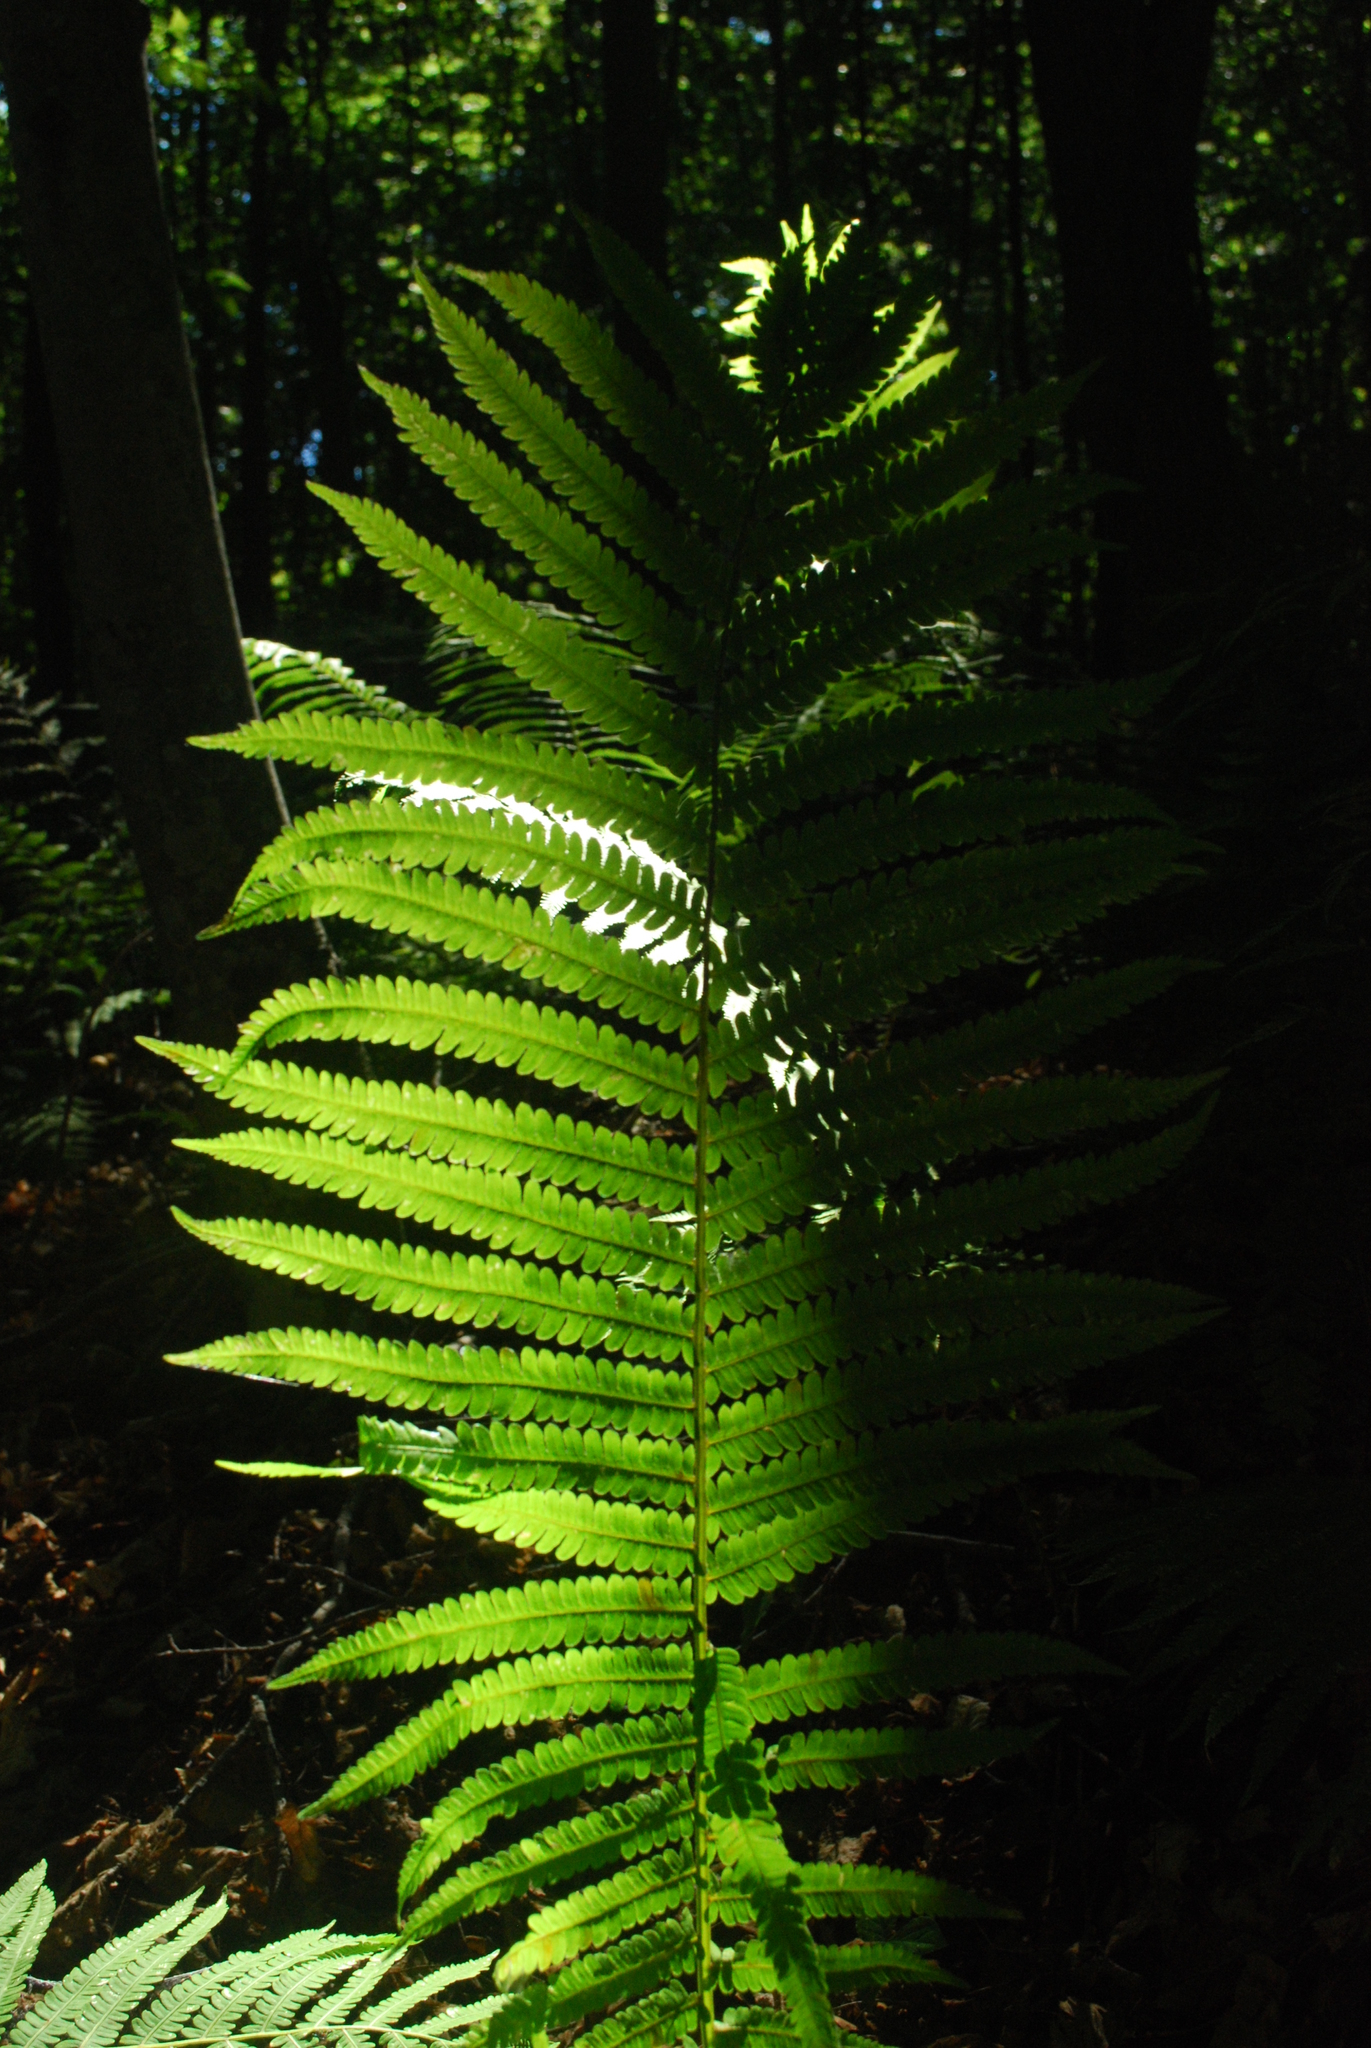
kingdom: Plantae
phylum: Tracheophyta
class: Polypodiopsida
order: Polypodiales
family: Onocleaceae
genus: Matteuccia
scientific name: Matteuccia struthiopteris
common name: Ostrich fern
